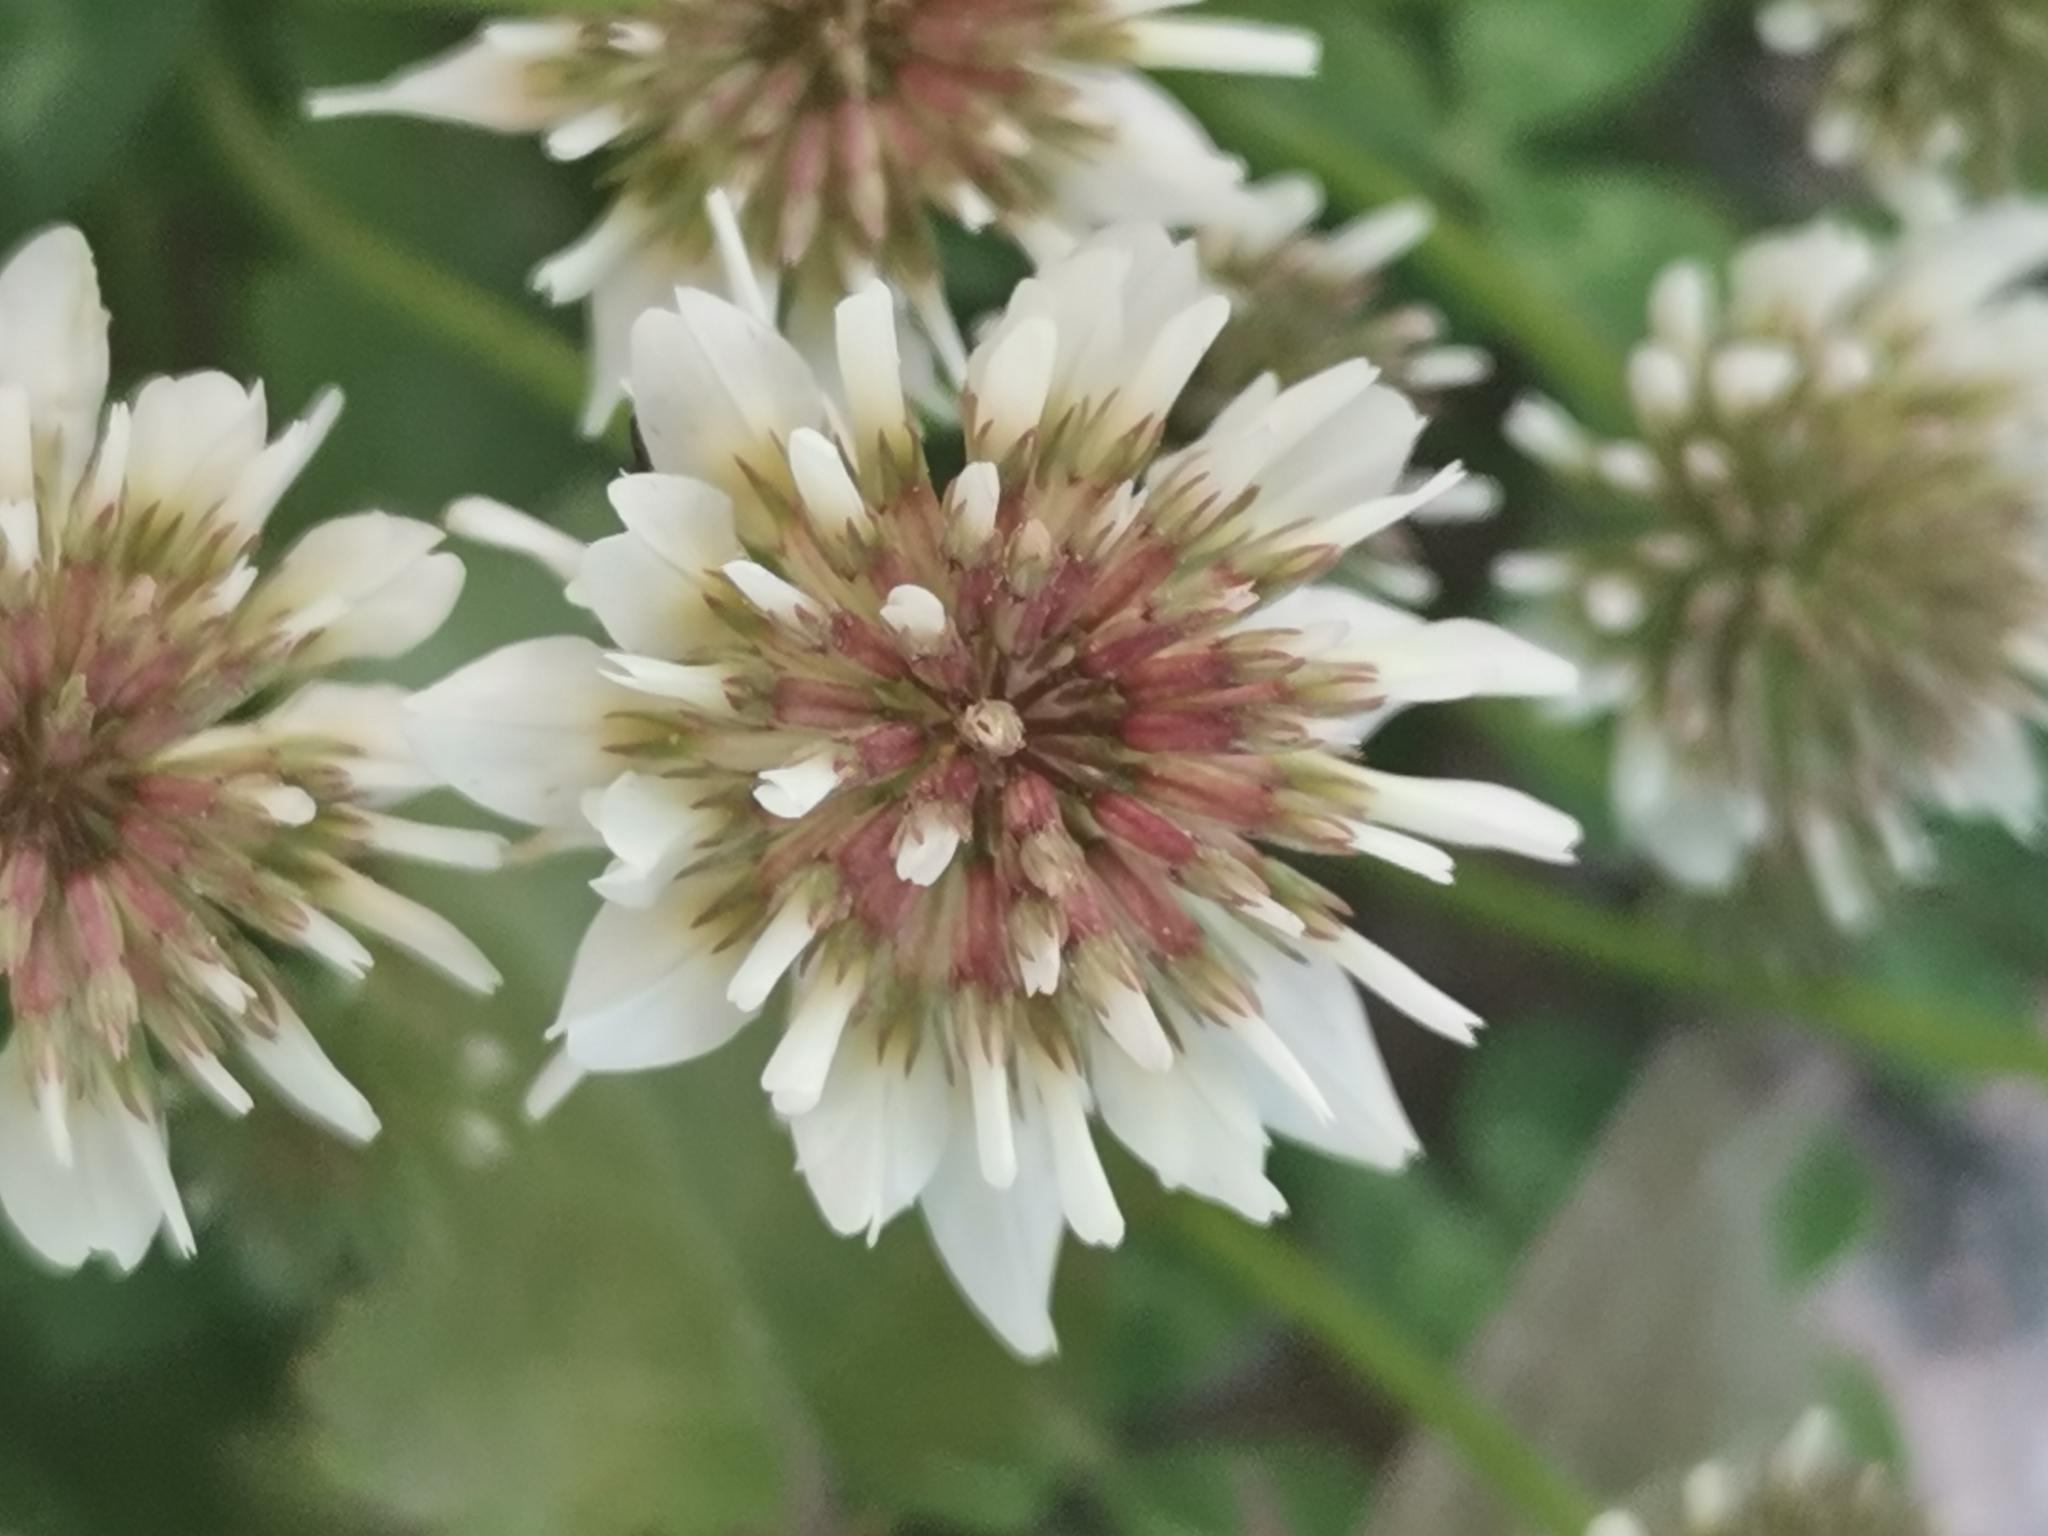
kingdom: Plantae
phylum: Tracheophyta
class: Magnoliopsida
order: Fabales
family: Fabaceae
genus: Trifolium
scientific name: Trifolium repens
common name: White clover
